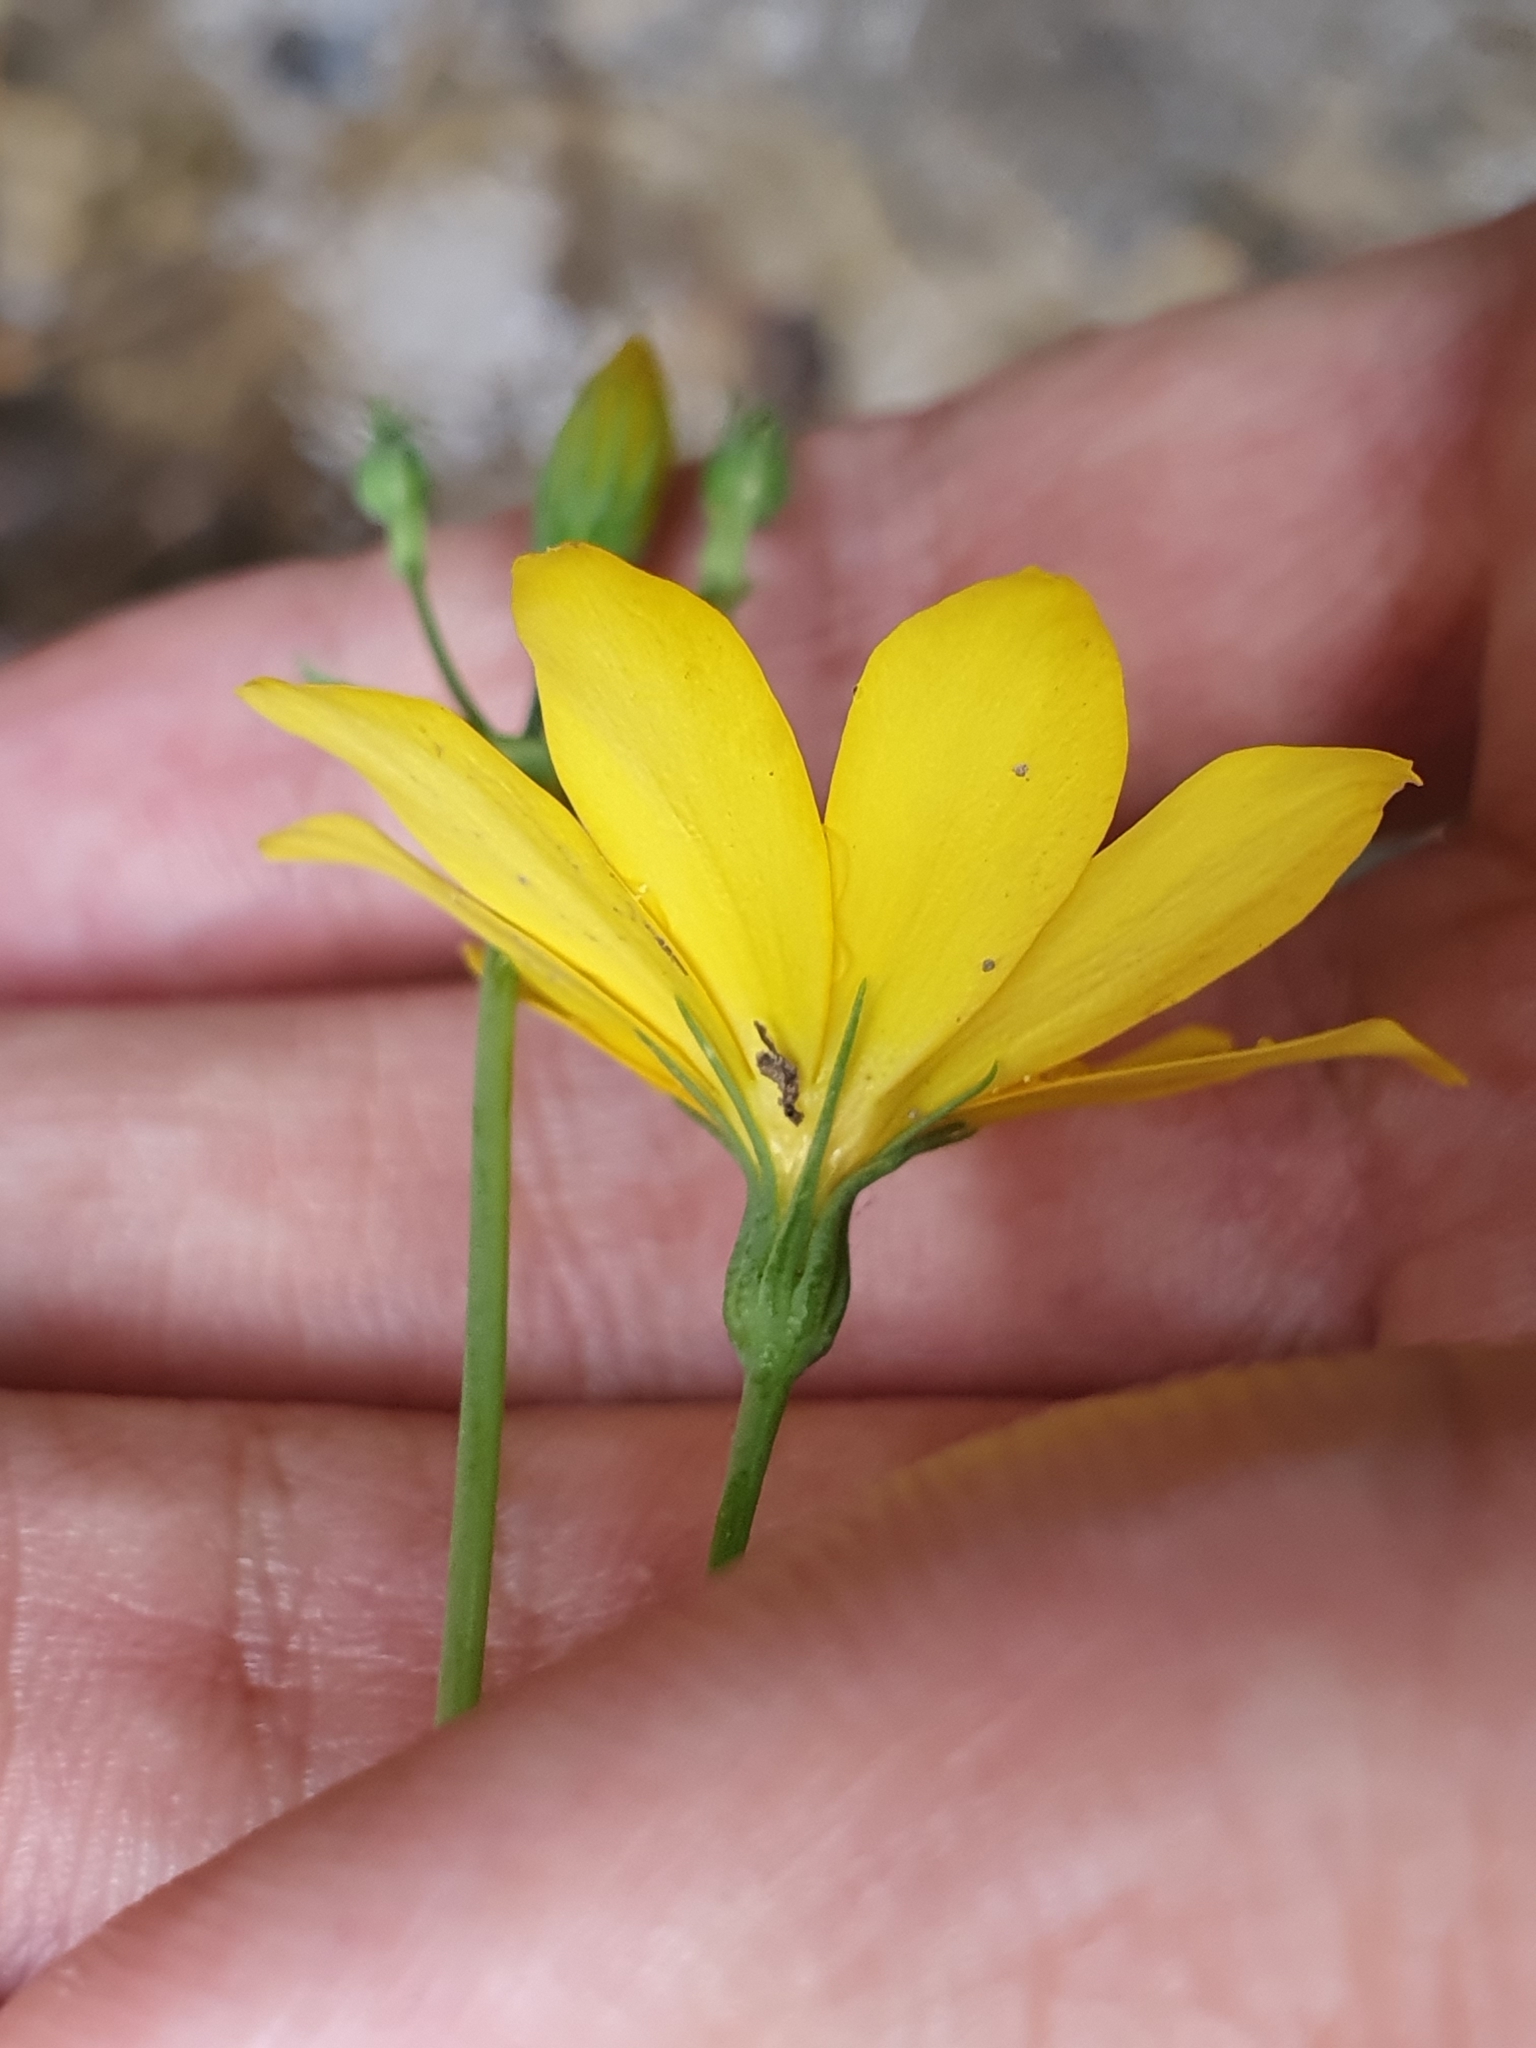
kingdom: Plantae
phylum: Tracheophyta
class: Magnoliopsida
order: Gentianales
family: Gentianaceae
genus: Blackstonia
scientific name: Blackstonia grandiflora
